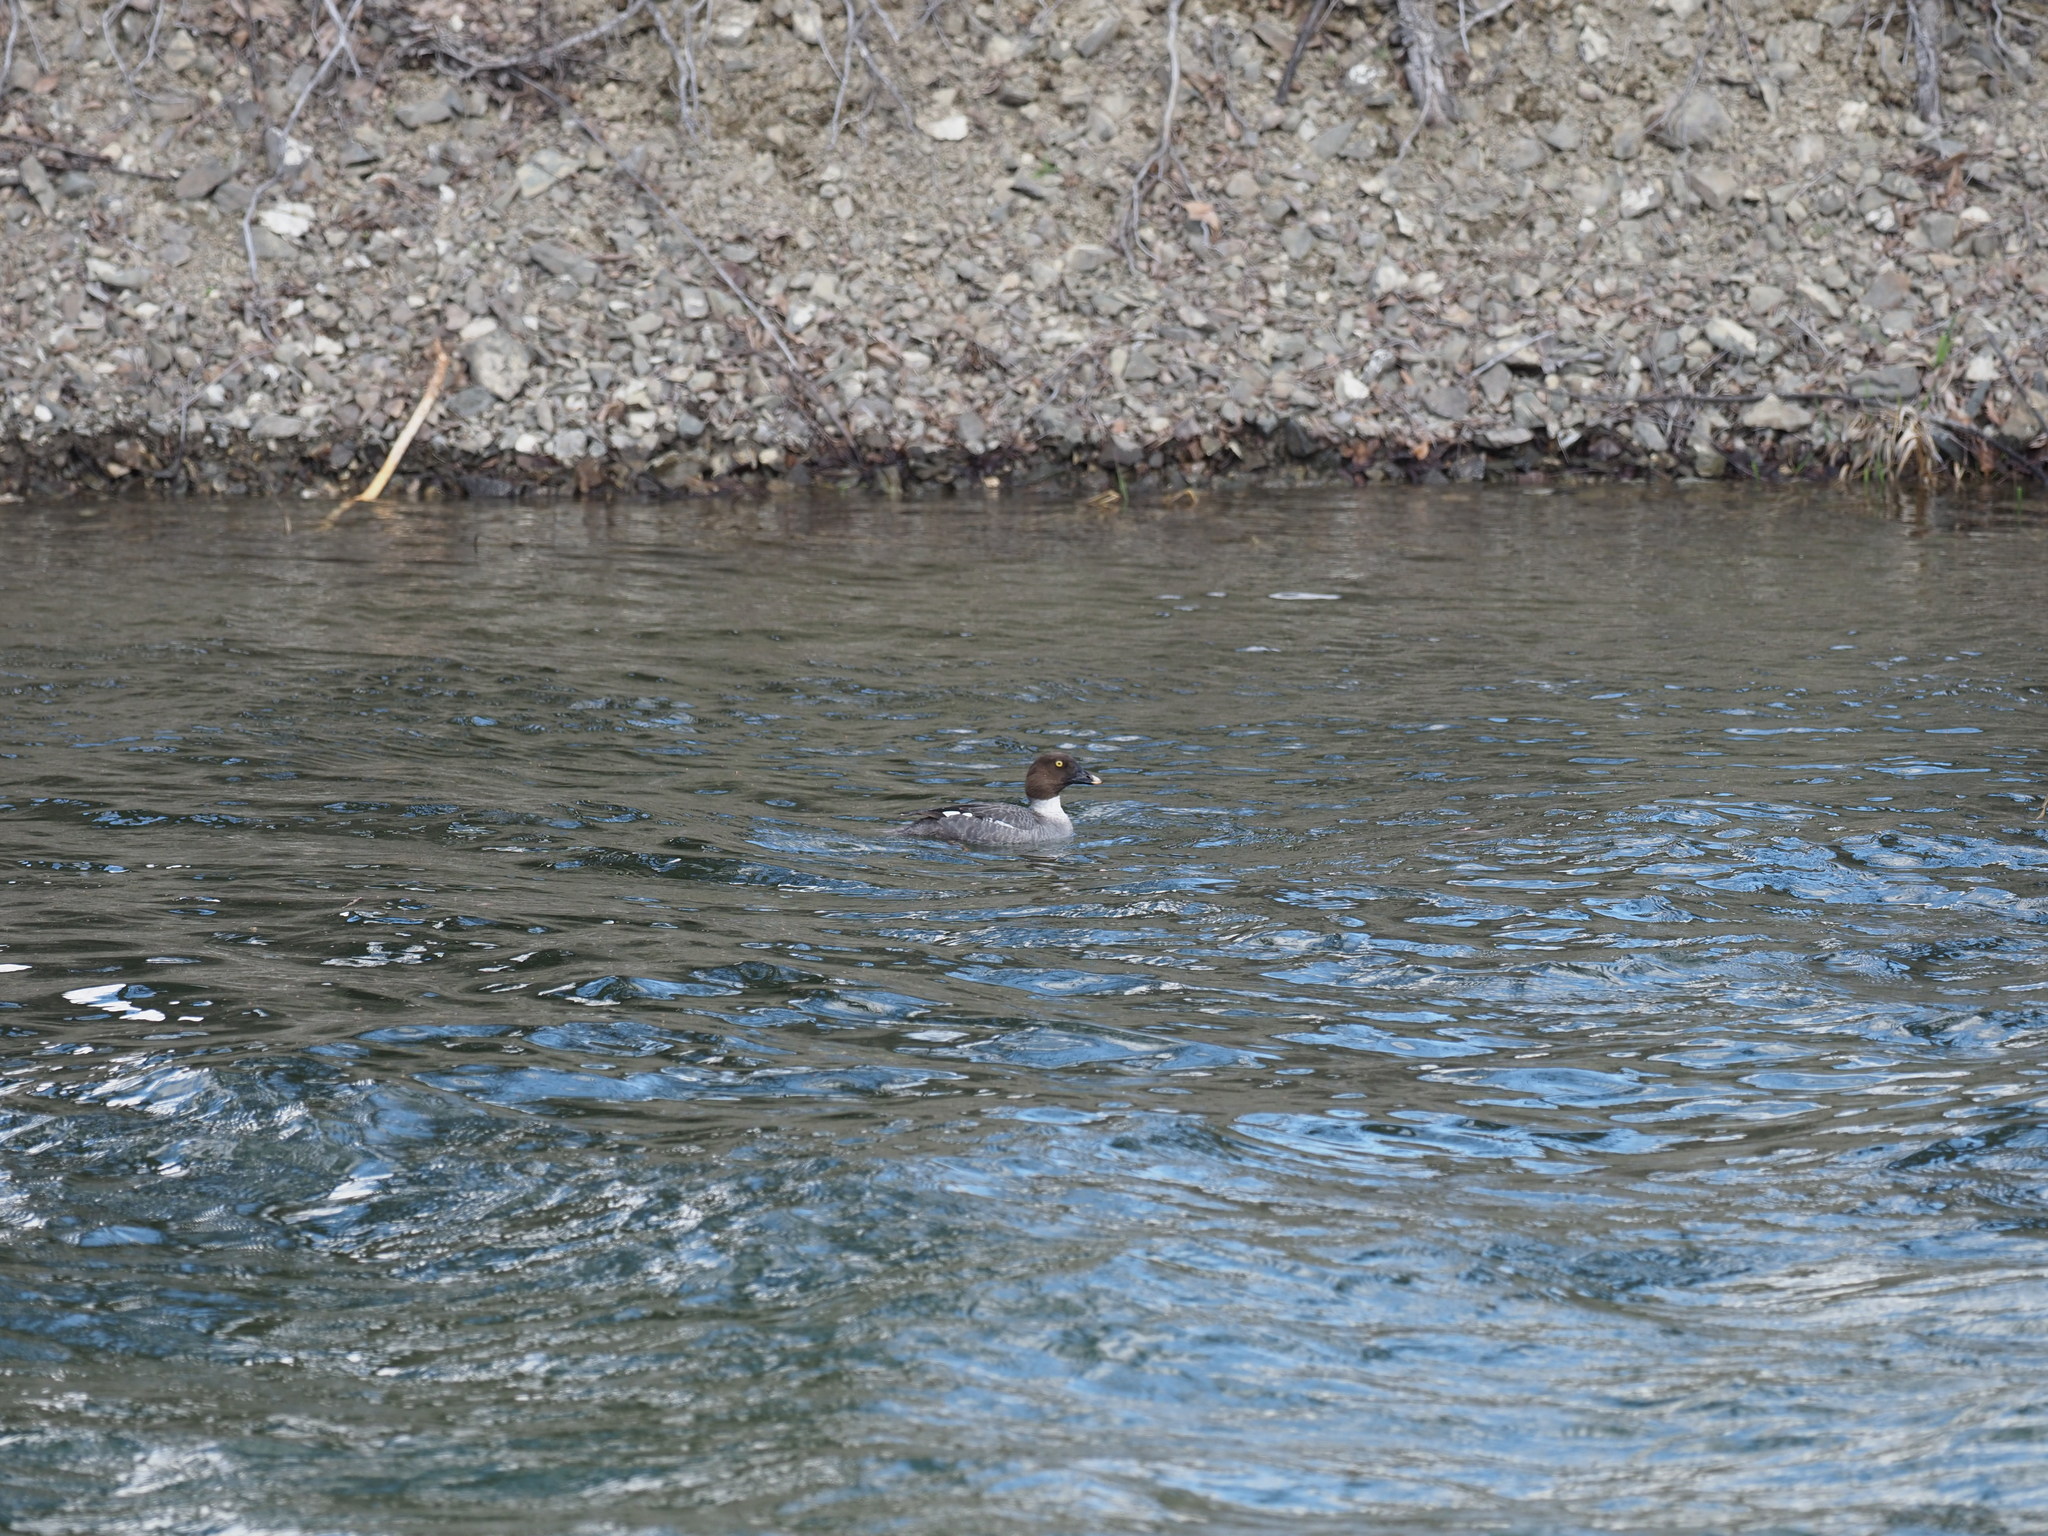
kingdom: Animalia
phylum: Chordata
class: Aves
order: Anseriformes
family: Anatidae
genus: Bucephala
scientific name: Bucephala clangula
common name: Common goldeneye
